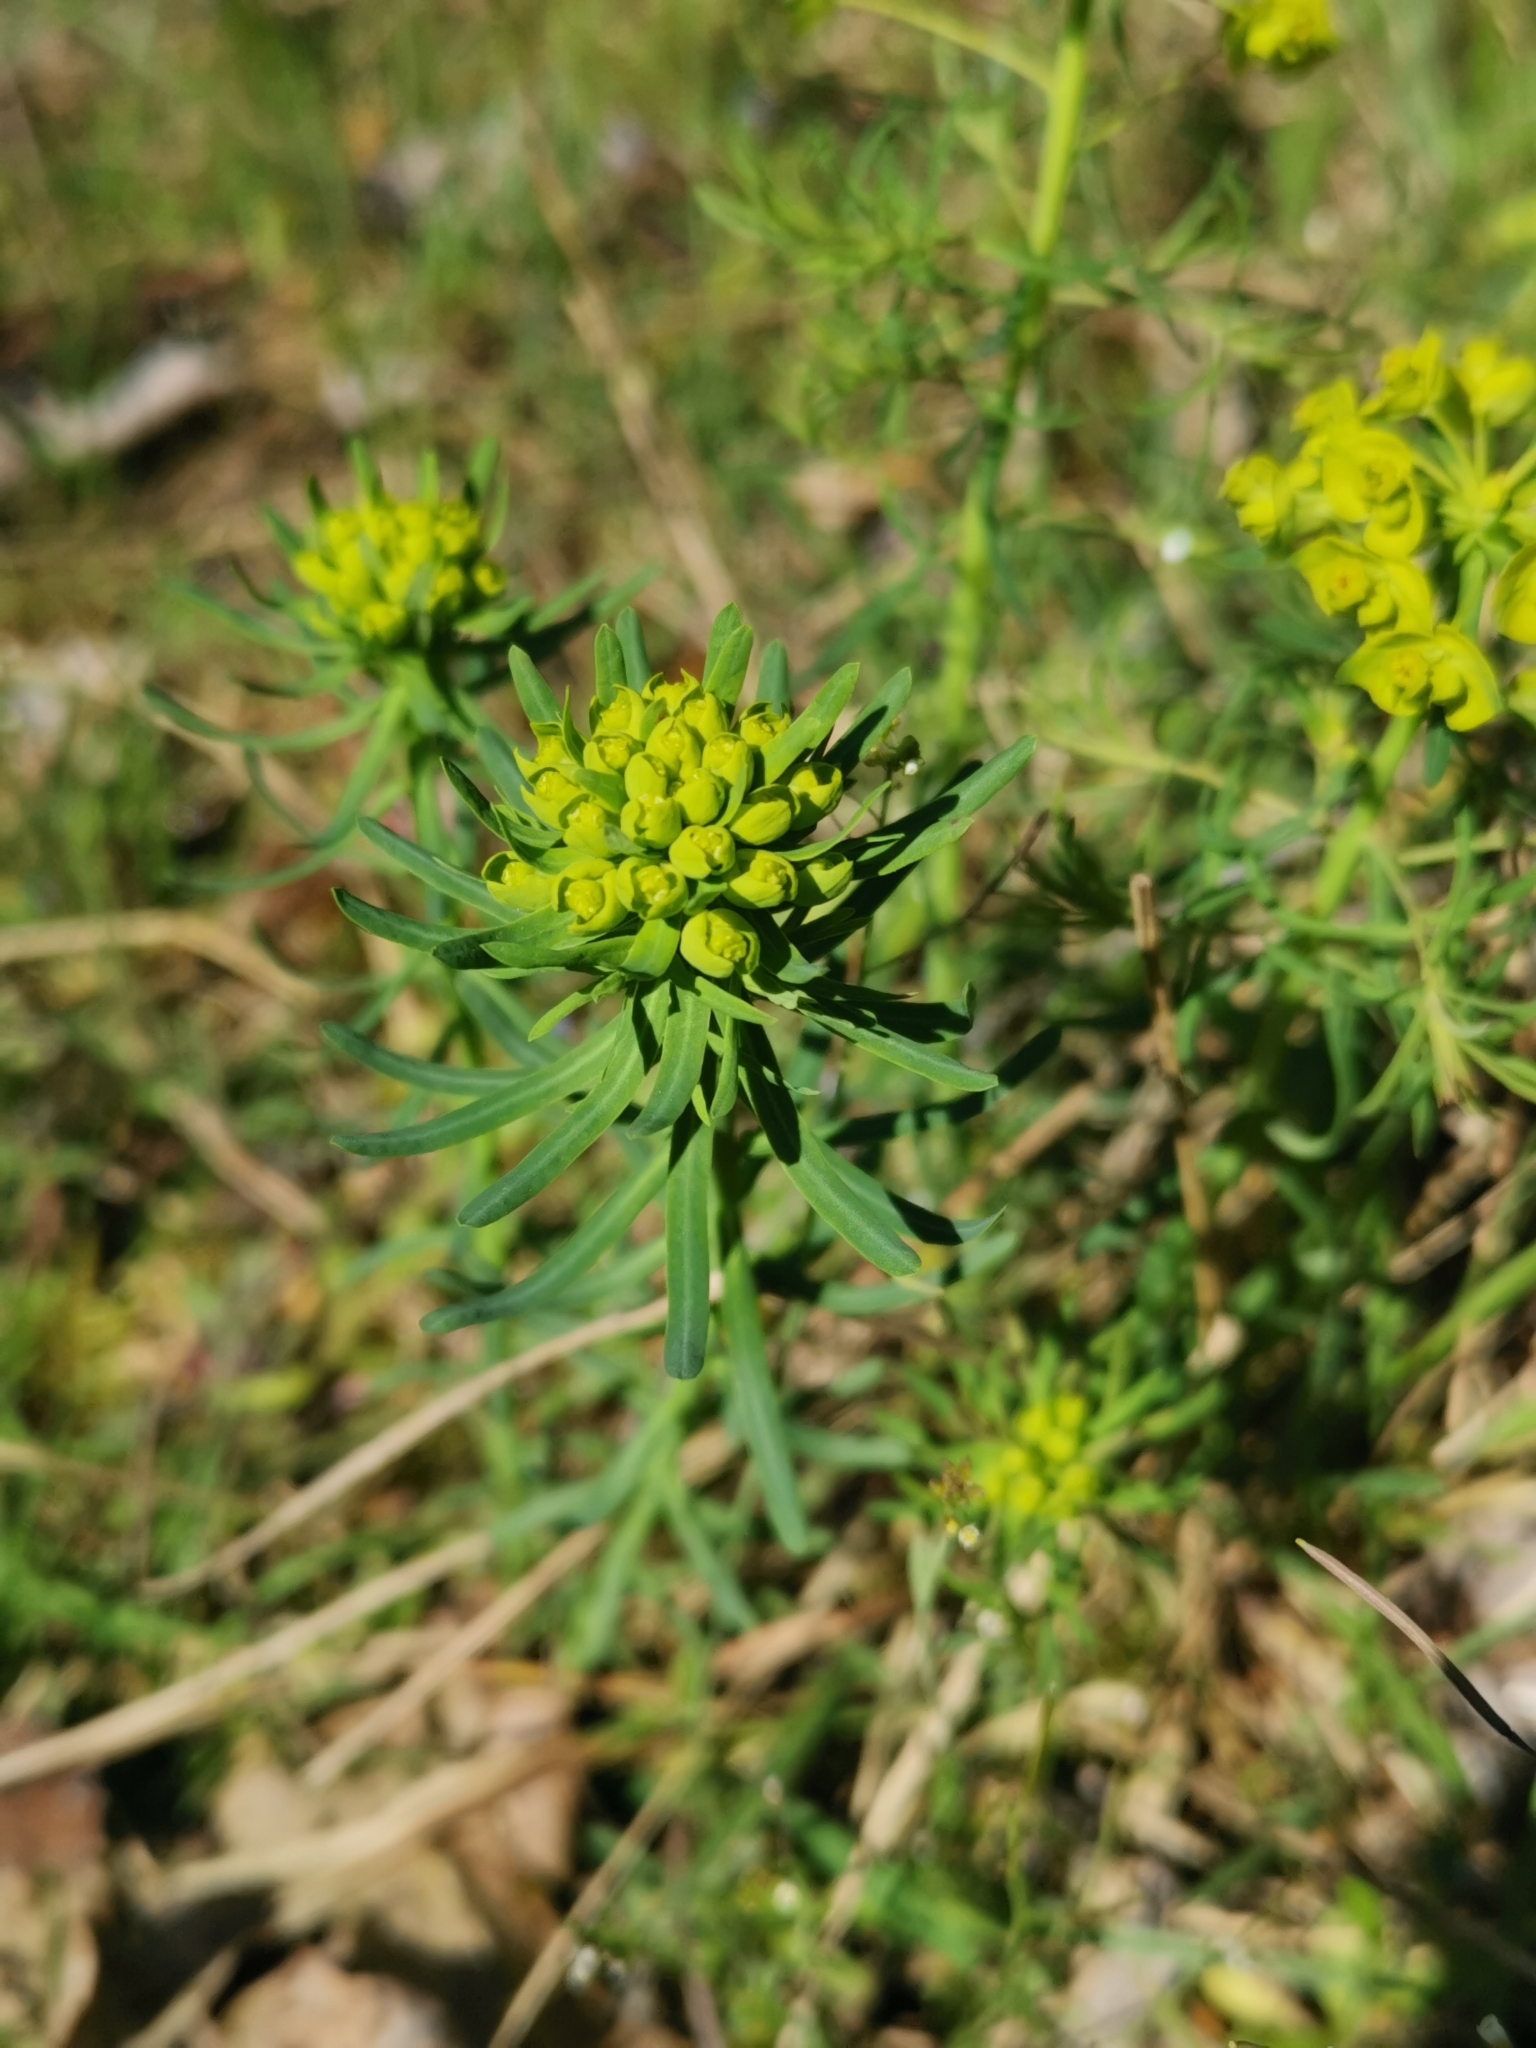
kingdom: Plantae
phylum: Tracheophyta
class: Magnoliopsida
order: Malpighiales
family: Euphorbiaceae
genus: Euphorbia
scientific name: Euphorbia cyparissias
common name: Cypress spurge
